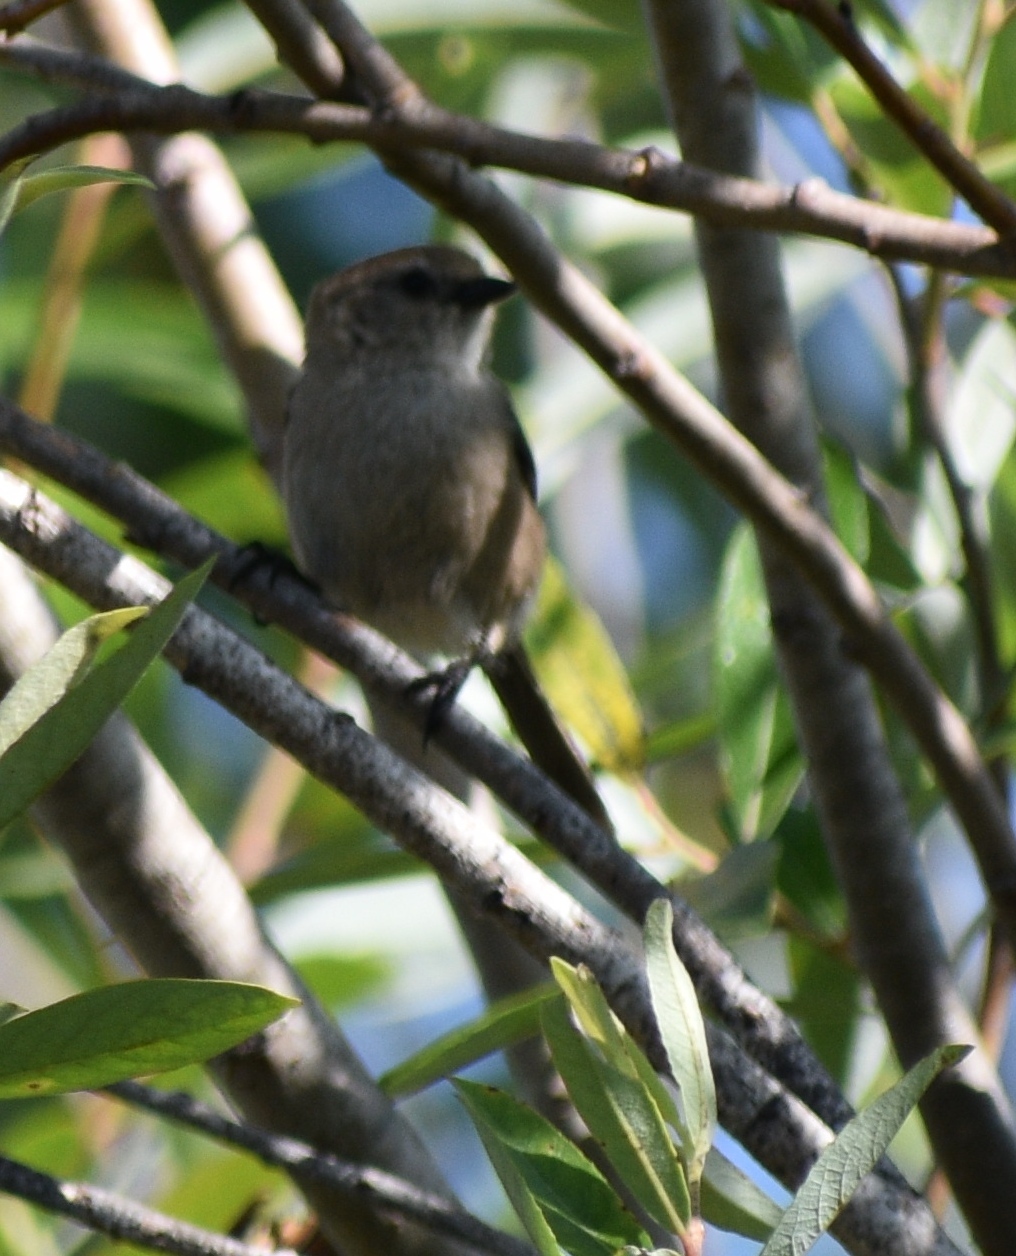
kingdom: Animalia
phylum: Chordata
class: Aves
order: Passeriformes
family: Aegithalidae
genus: Psaltriparus
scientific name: Psaltriparus minimus
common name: American bushtit
